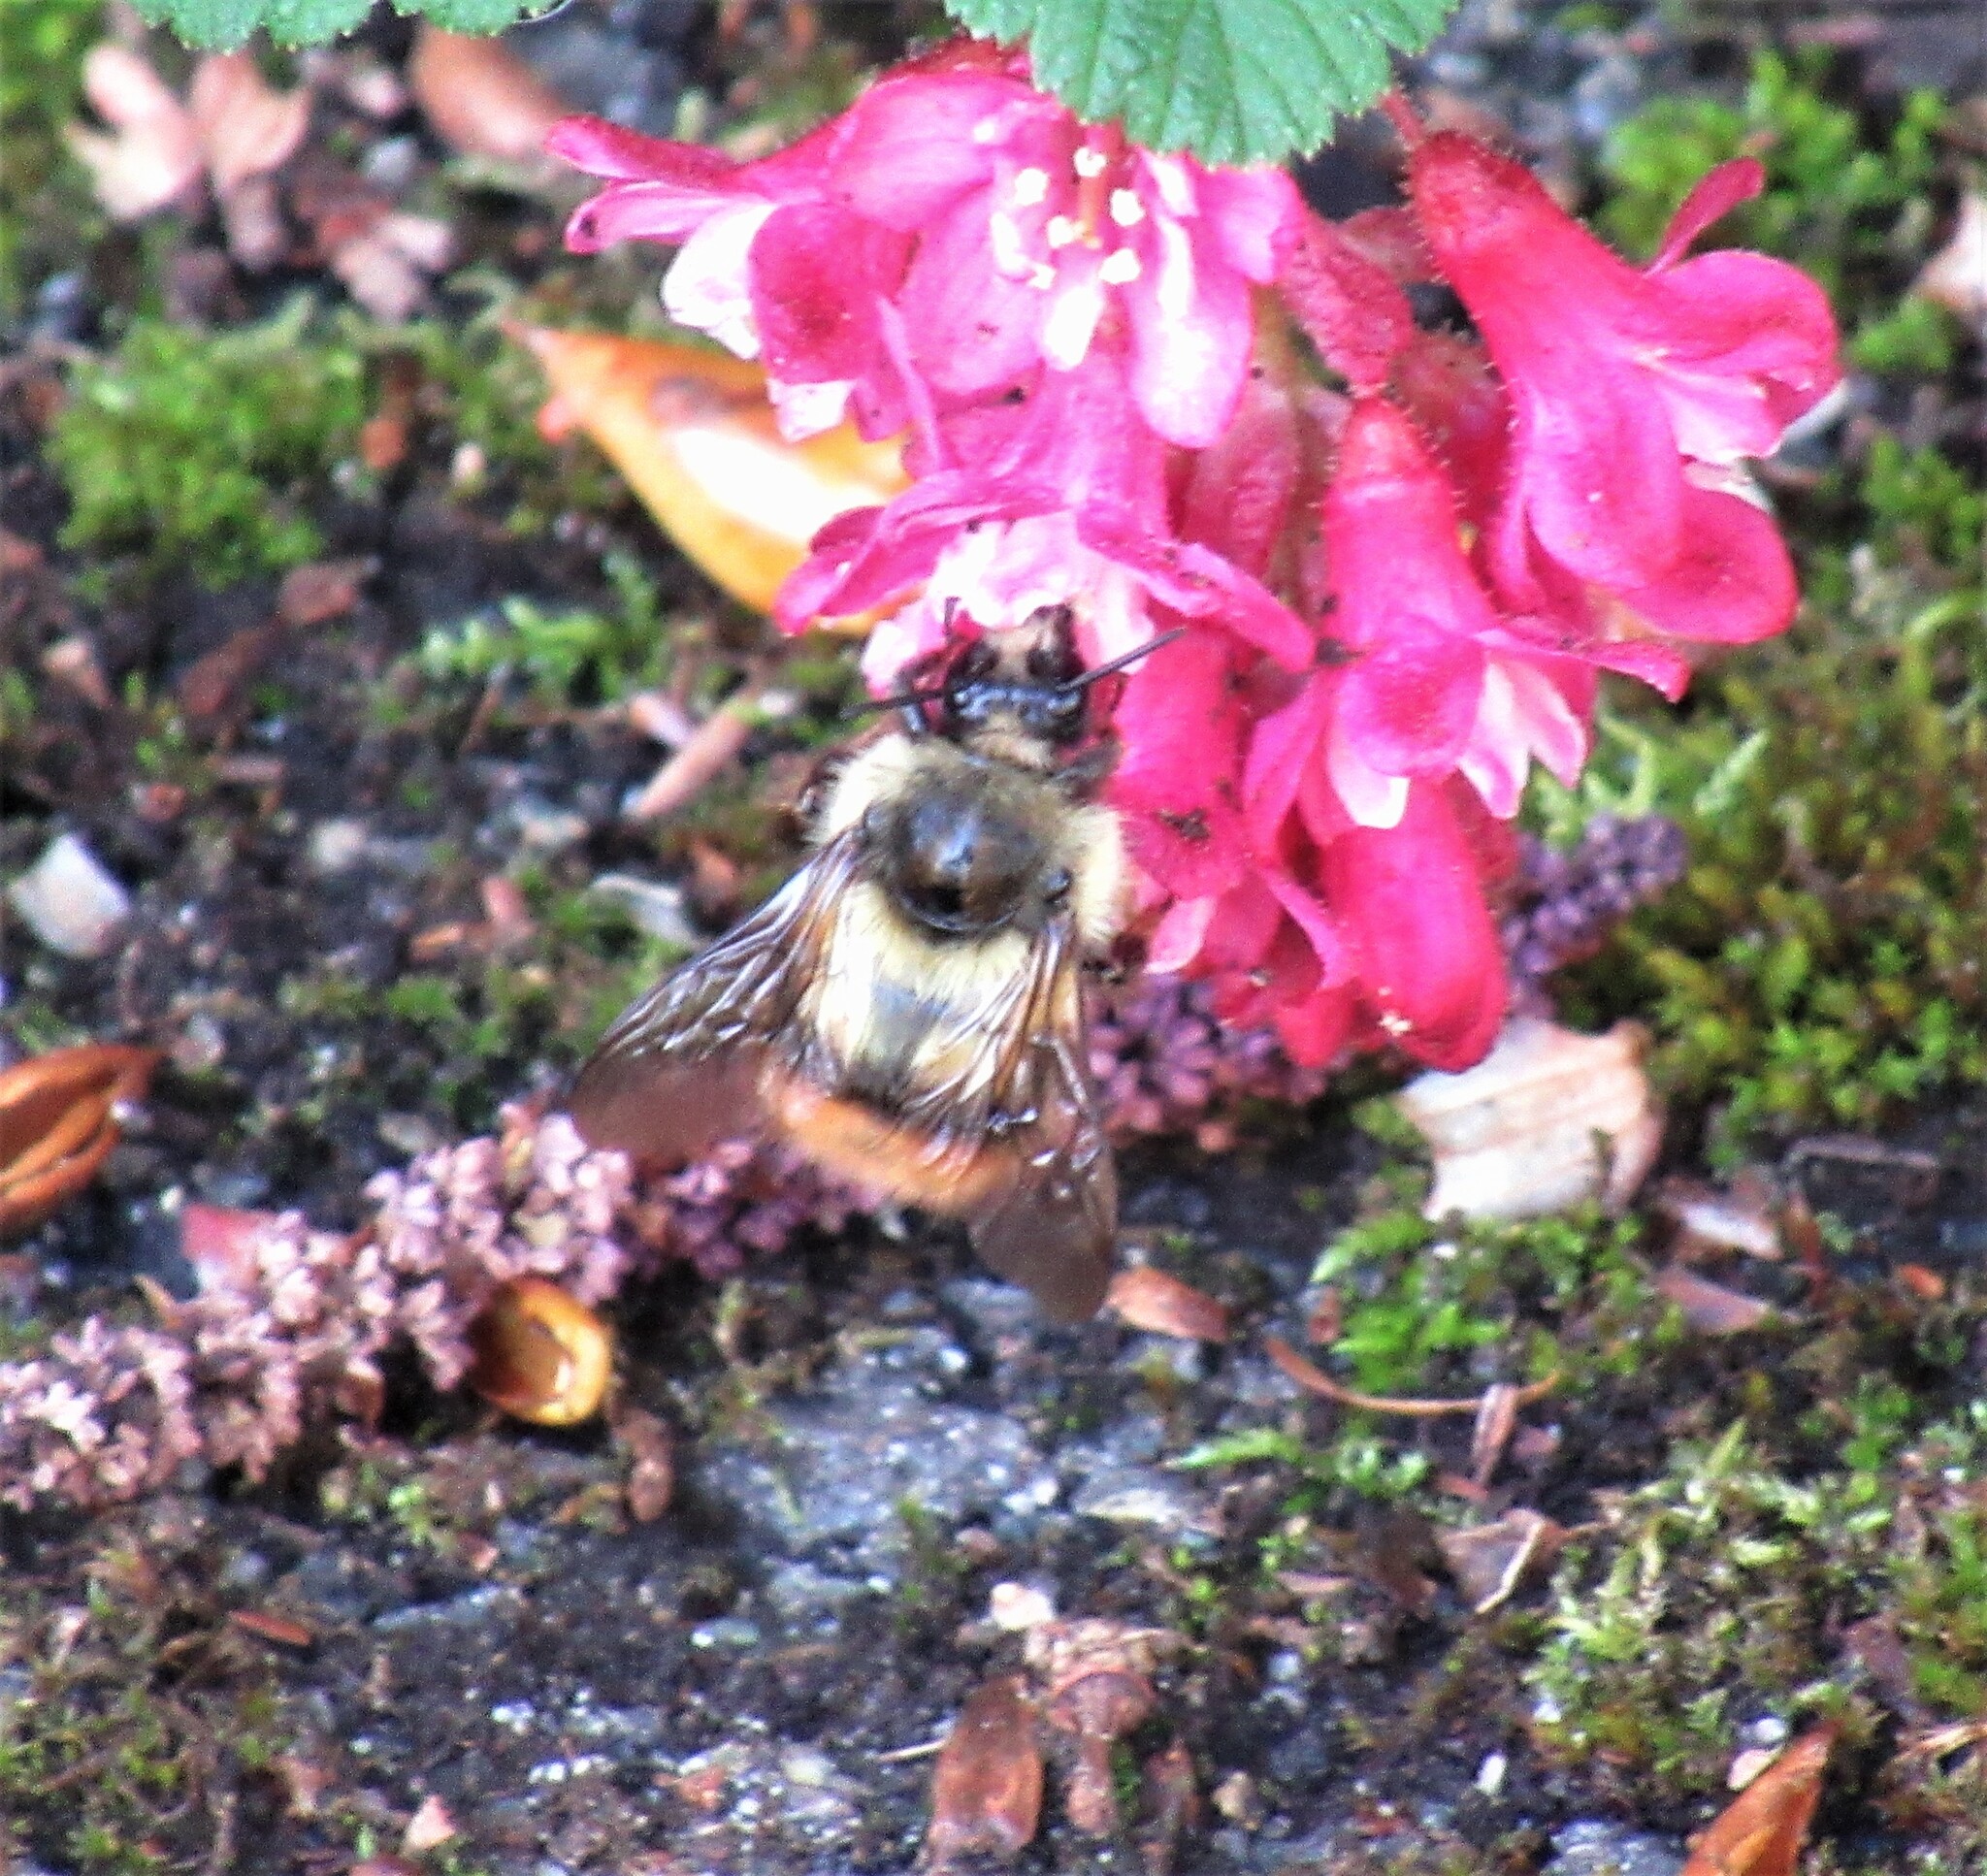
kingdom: Animalia
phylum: Arthropoda
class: Insecta
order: Hymenoptera
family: Apidae
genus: Bombus
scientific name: Bombus mixtus
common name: Fuzzy-horned bumble bee
